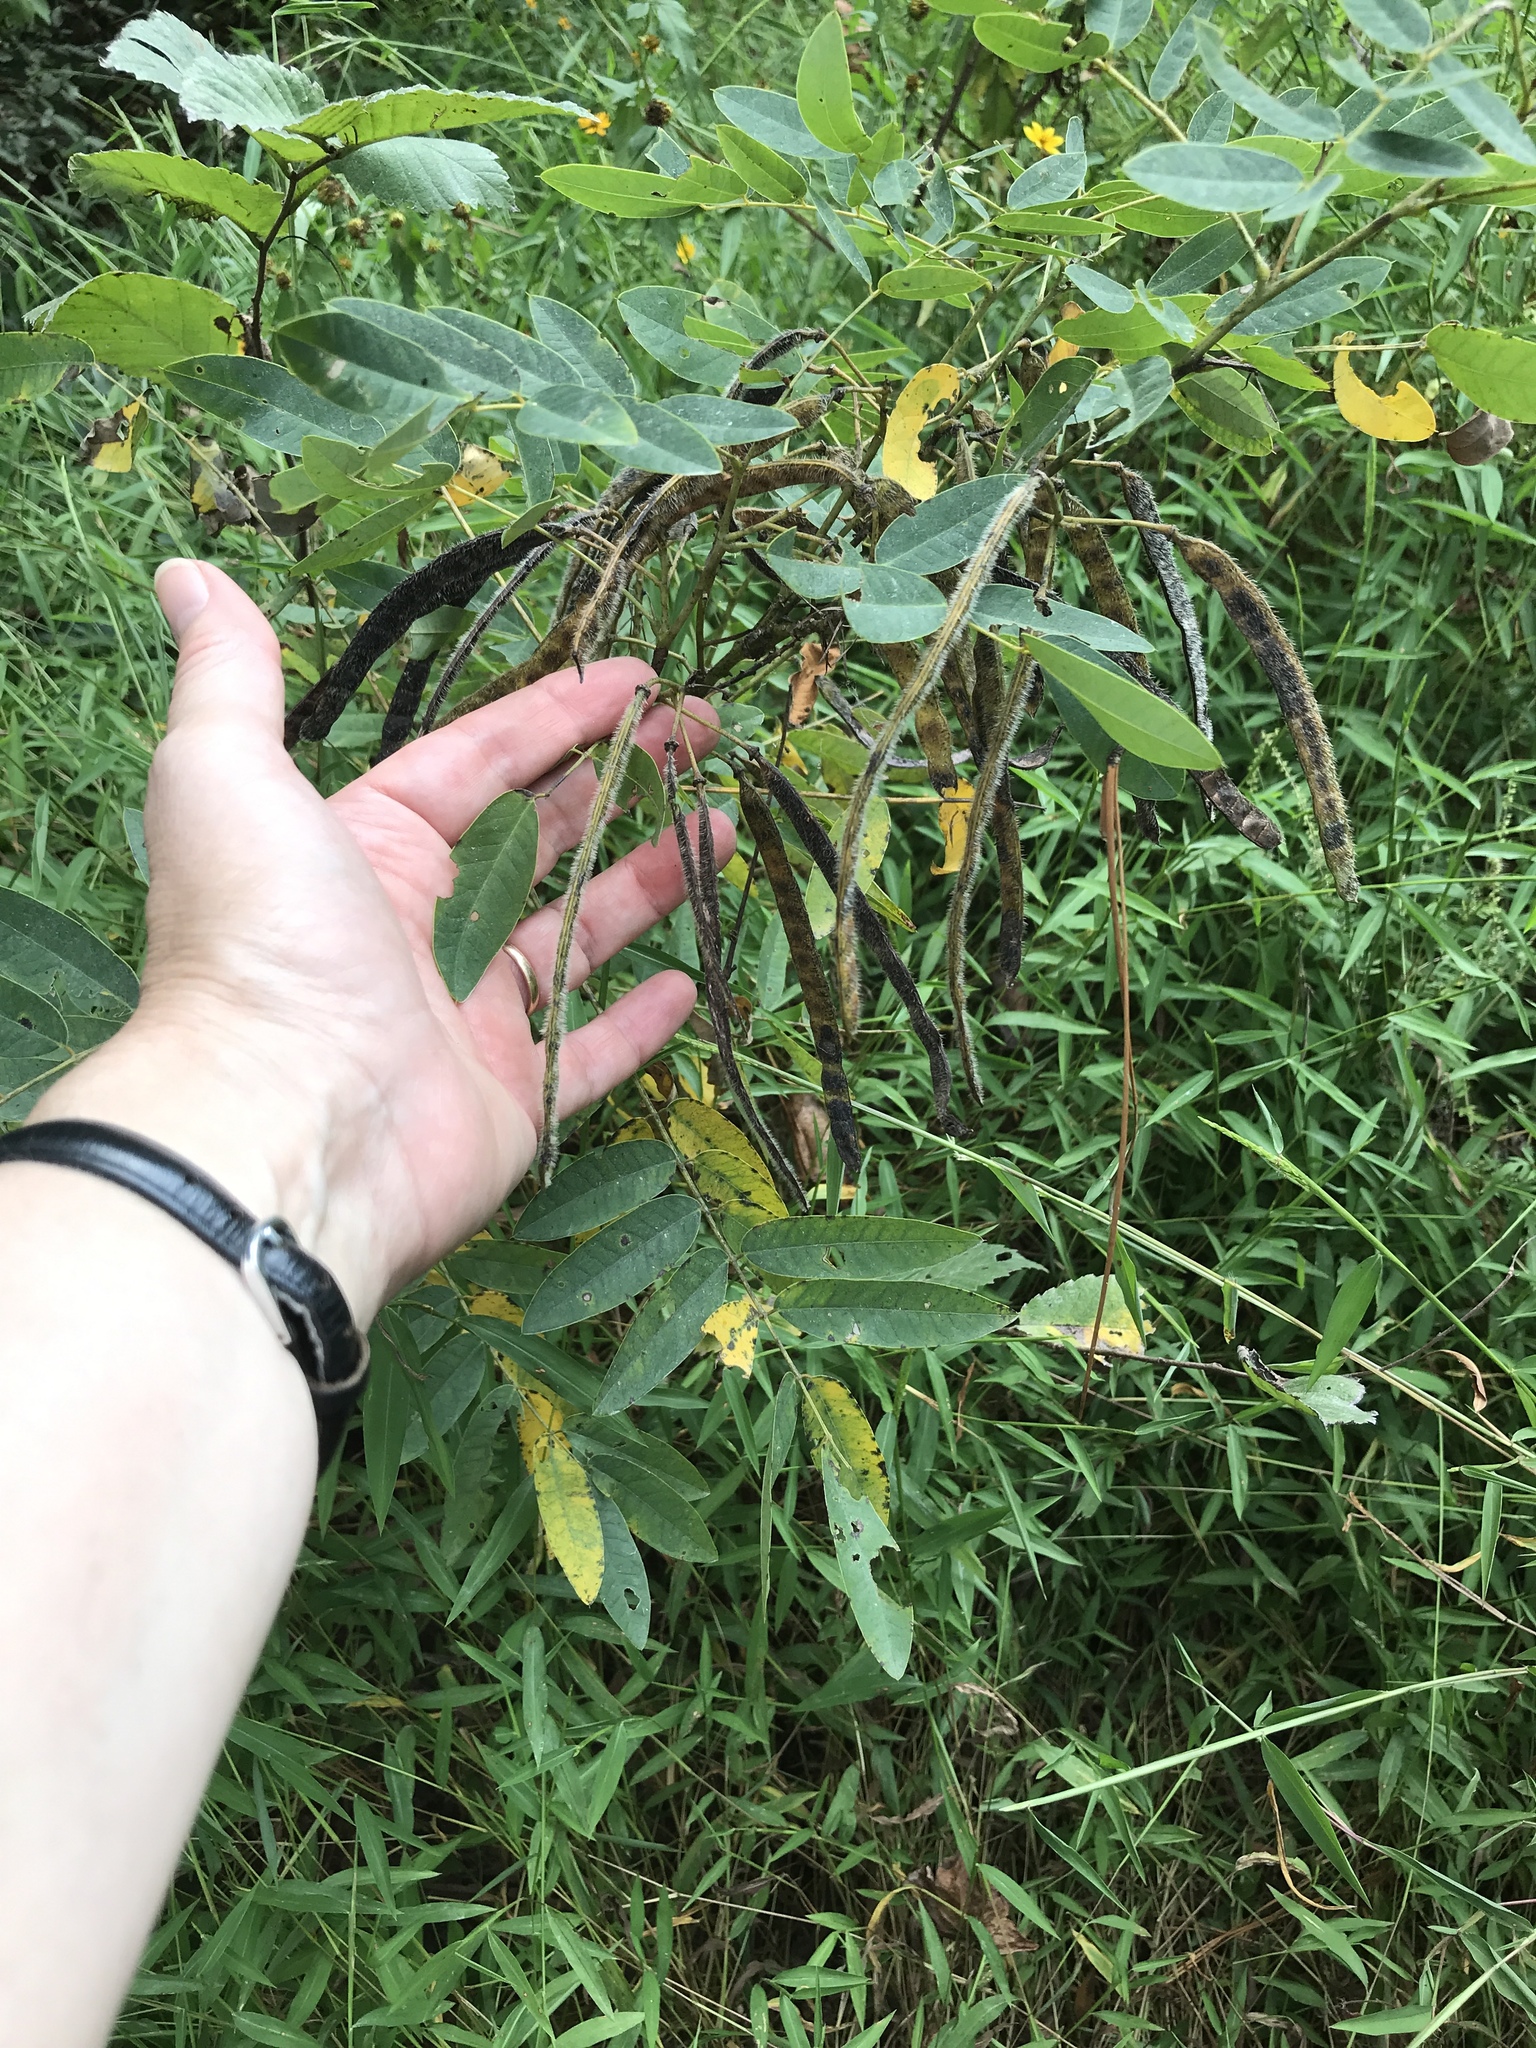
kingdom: Plantae
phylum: Tracheophyta
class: Magnoliopsida
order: Fabales
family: Fabaceae
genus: Senna
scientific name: Senna hebecarpa
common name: Wild senna
